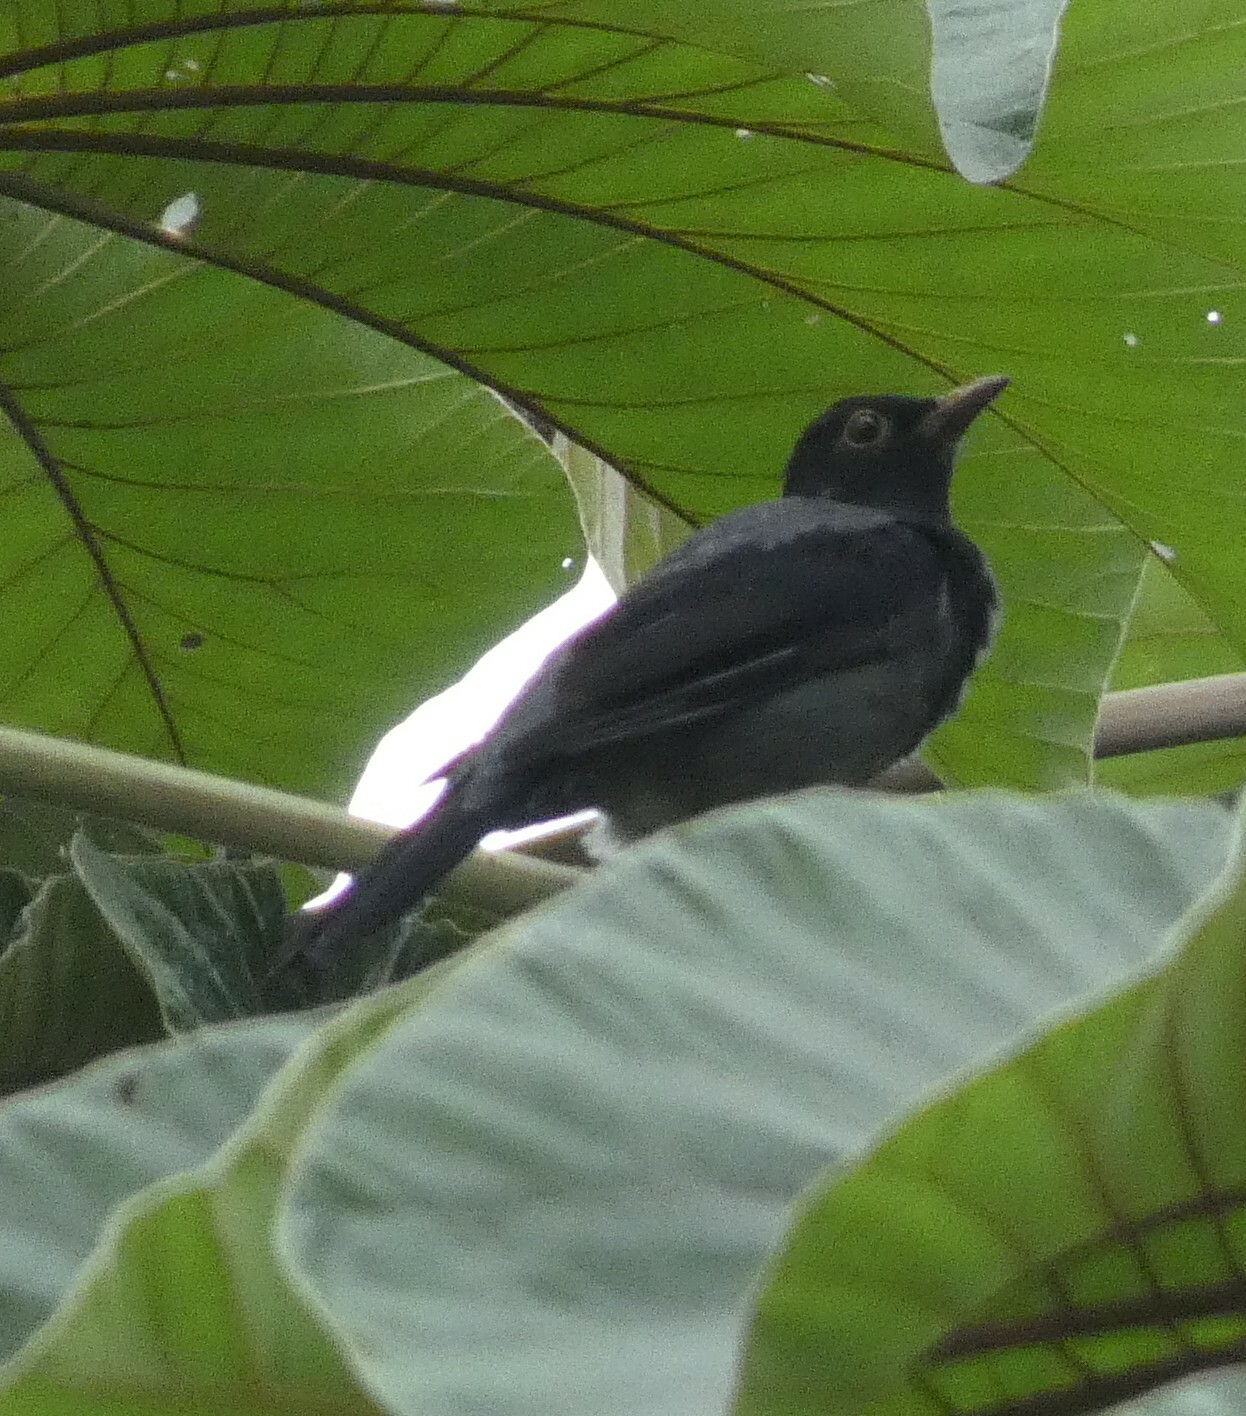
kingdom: Animalia
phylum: Chordata
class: Aves
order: Passeriformes
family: Turdidae
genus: Turdus
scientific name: Turdus flavipes
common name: Yellow-legged thrush
